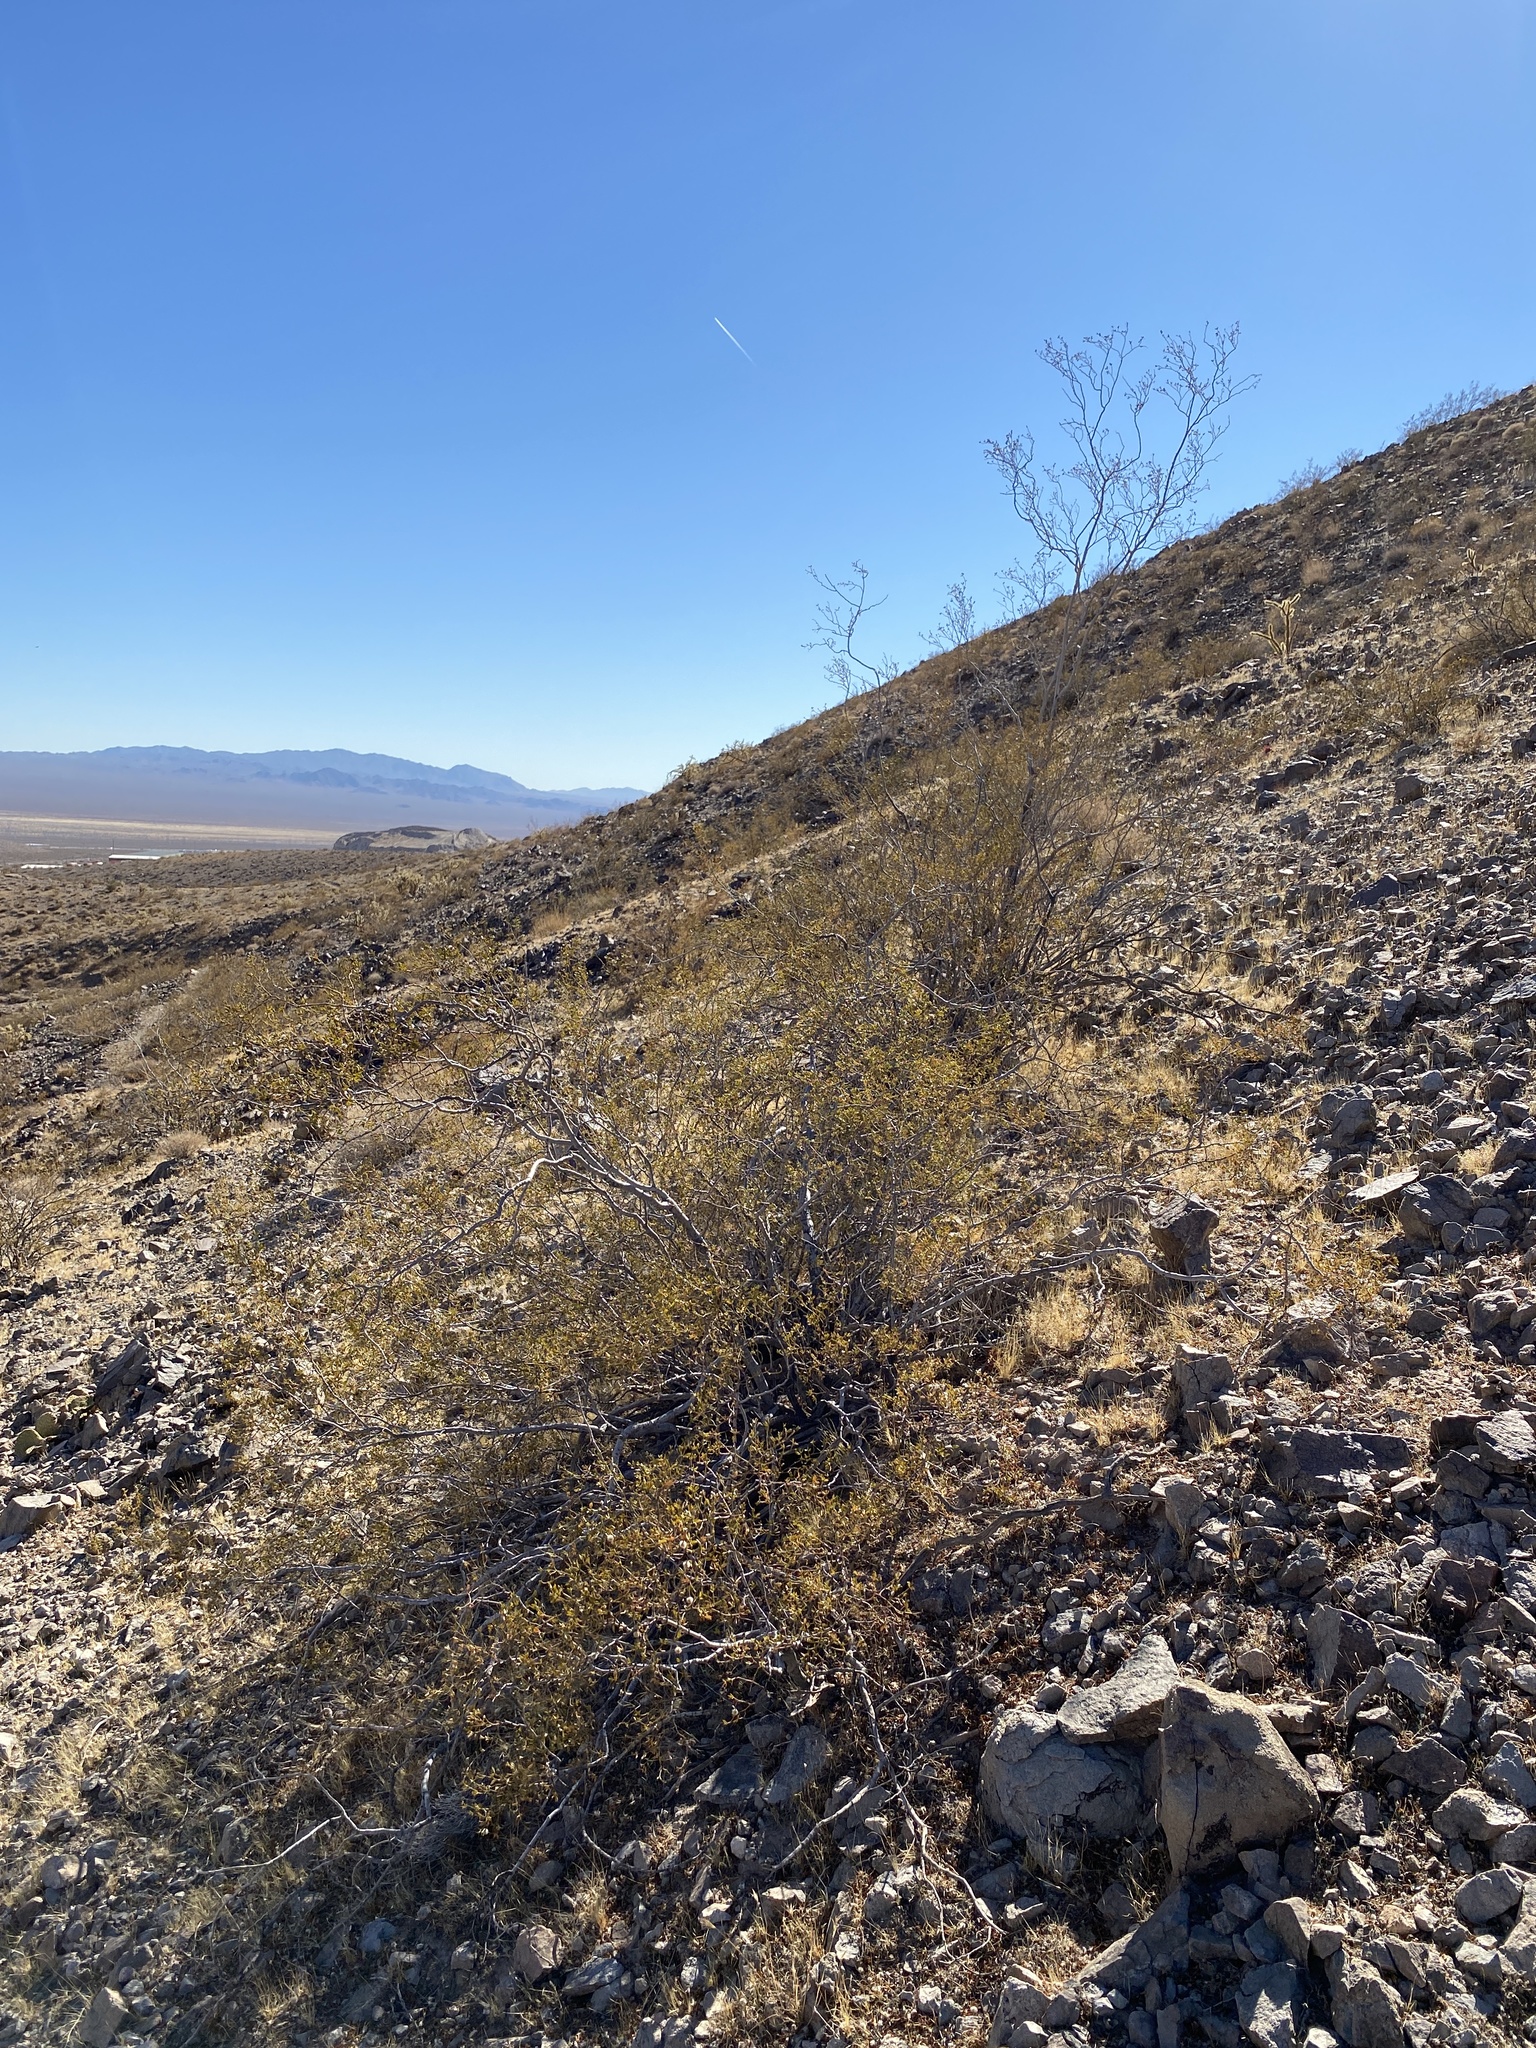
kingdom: Plantae
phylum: Tracheophyta
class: Magnoliopsida
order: Zygophyllales
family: Zygophyllaceae
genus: Larrea
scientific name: Larrea tridentata
